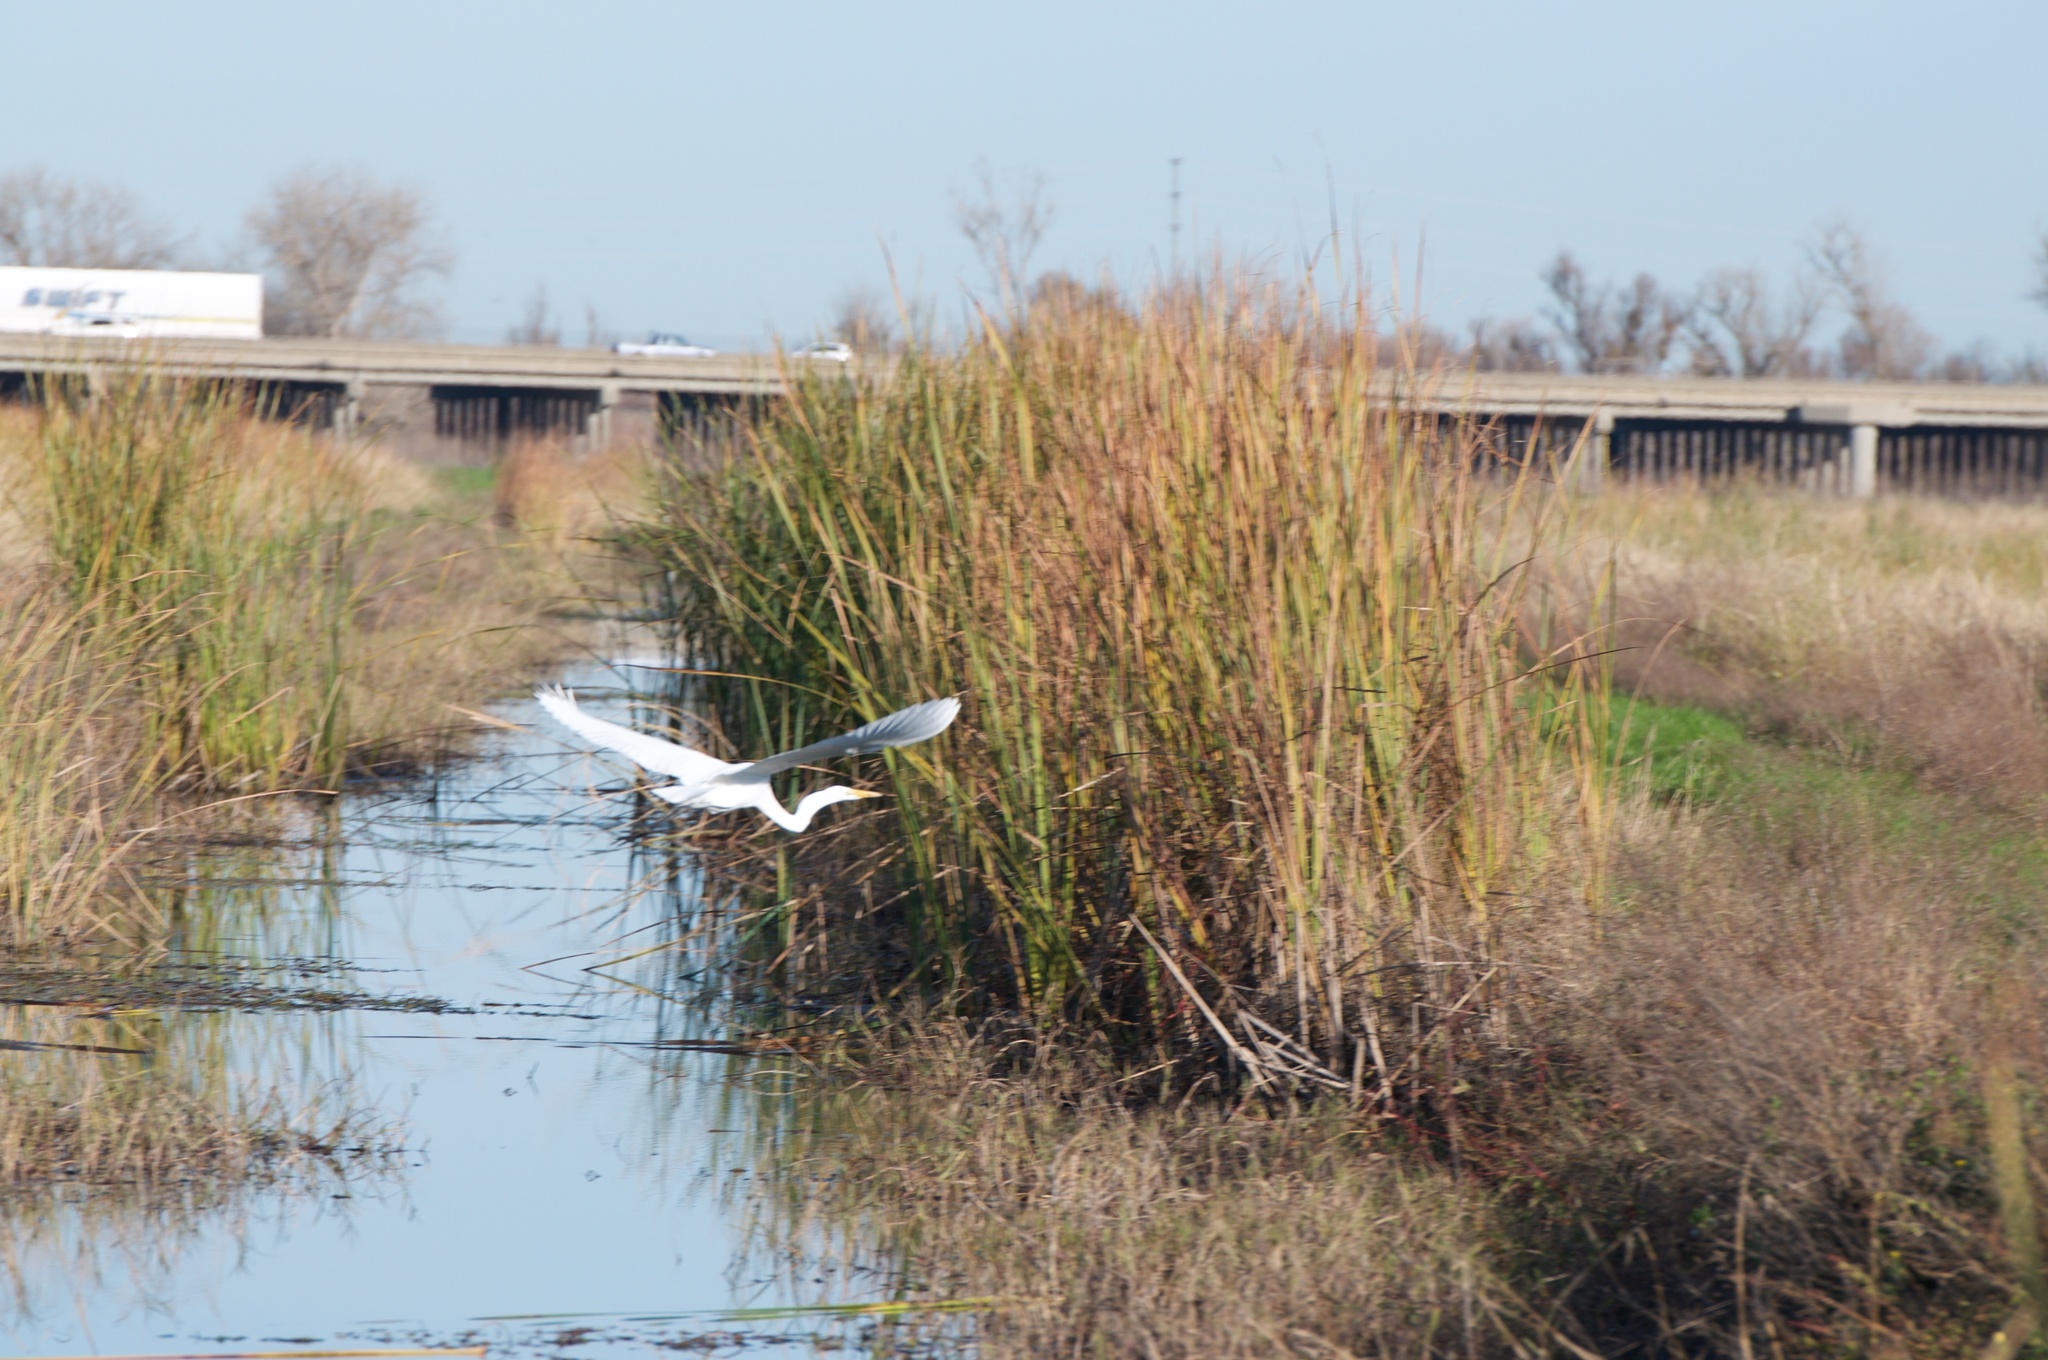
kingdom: Animalia
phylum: Chordata
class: Aves
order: Pelecaniformes
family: Ardeidae
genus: Ardea
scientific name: Ardea alba
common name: Great egret
